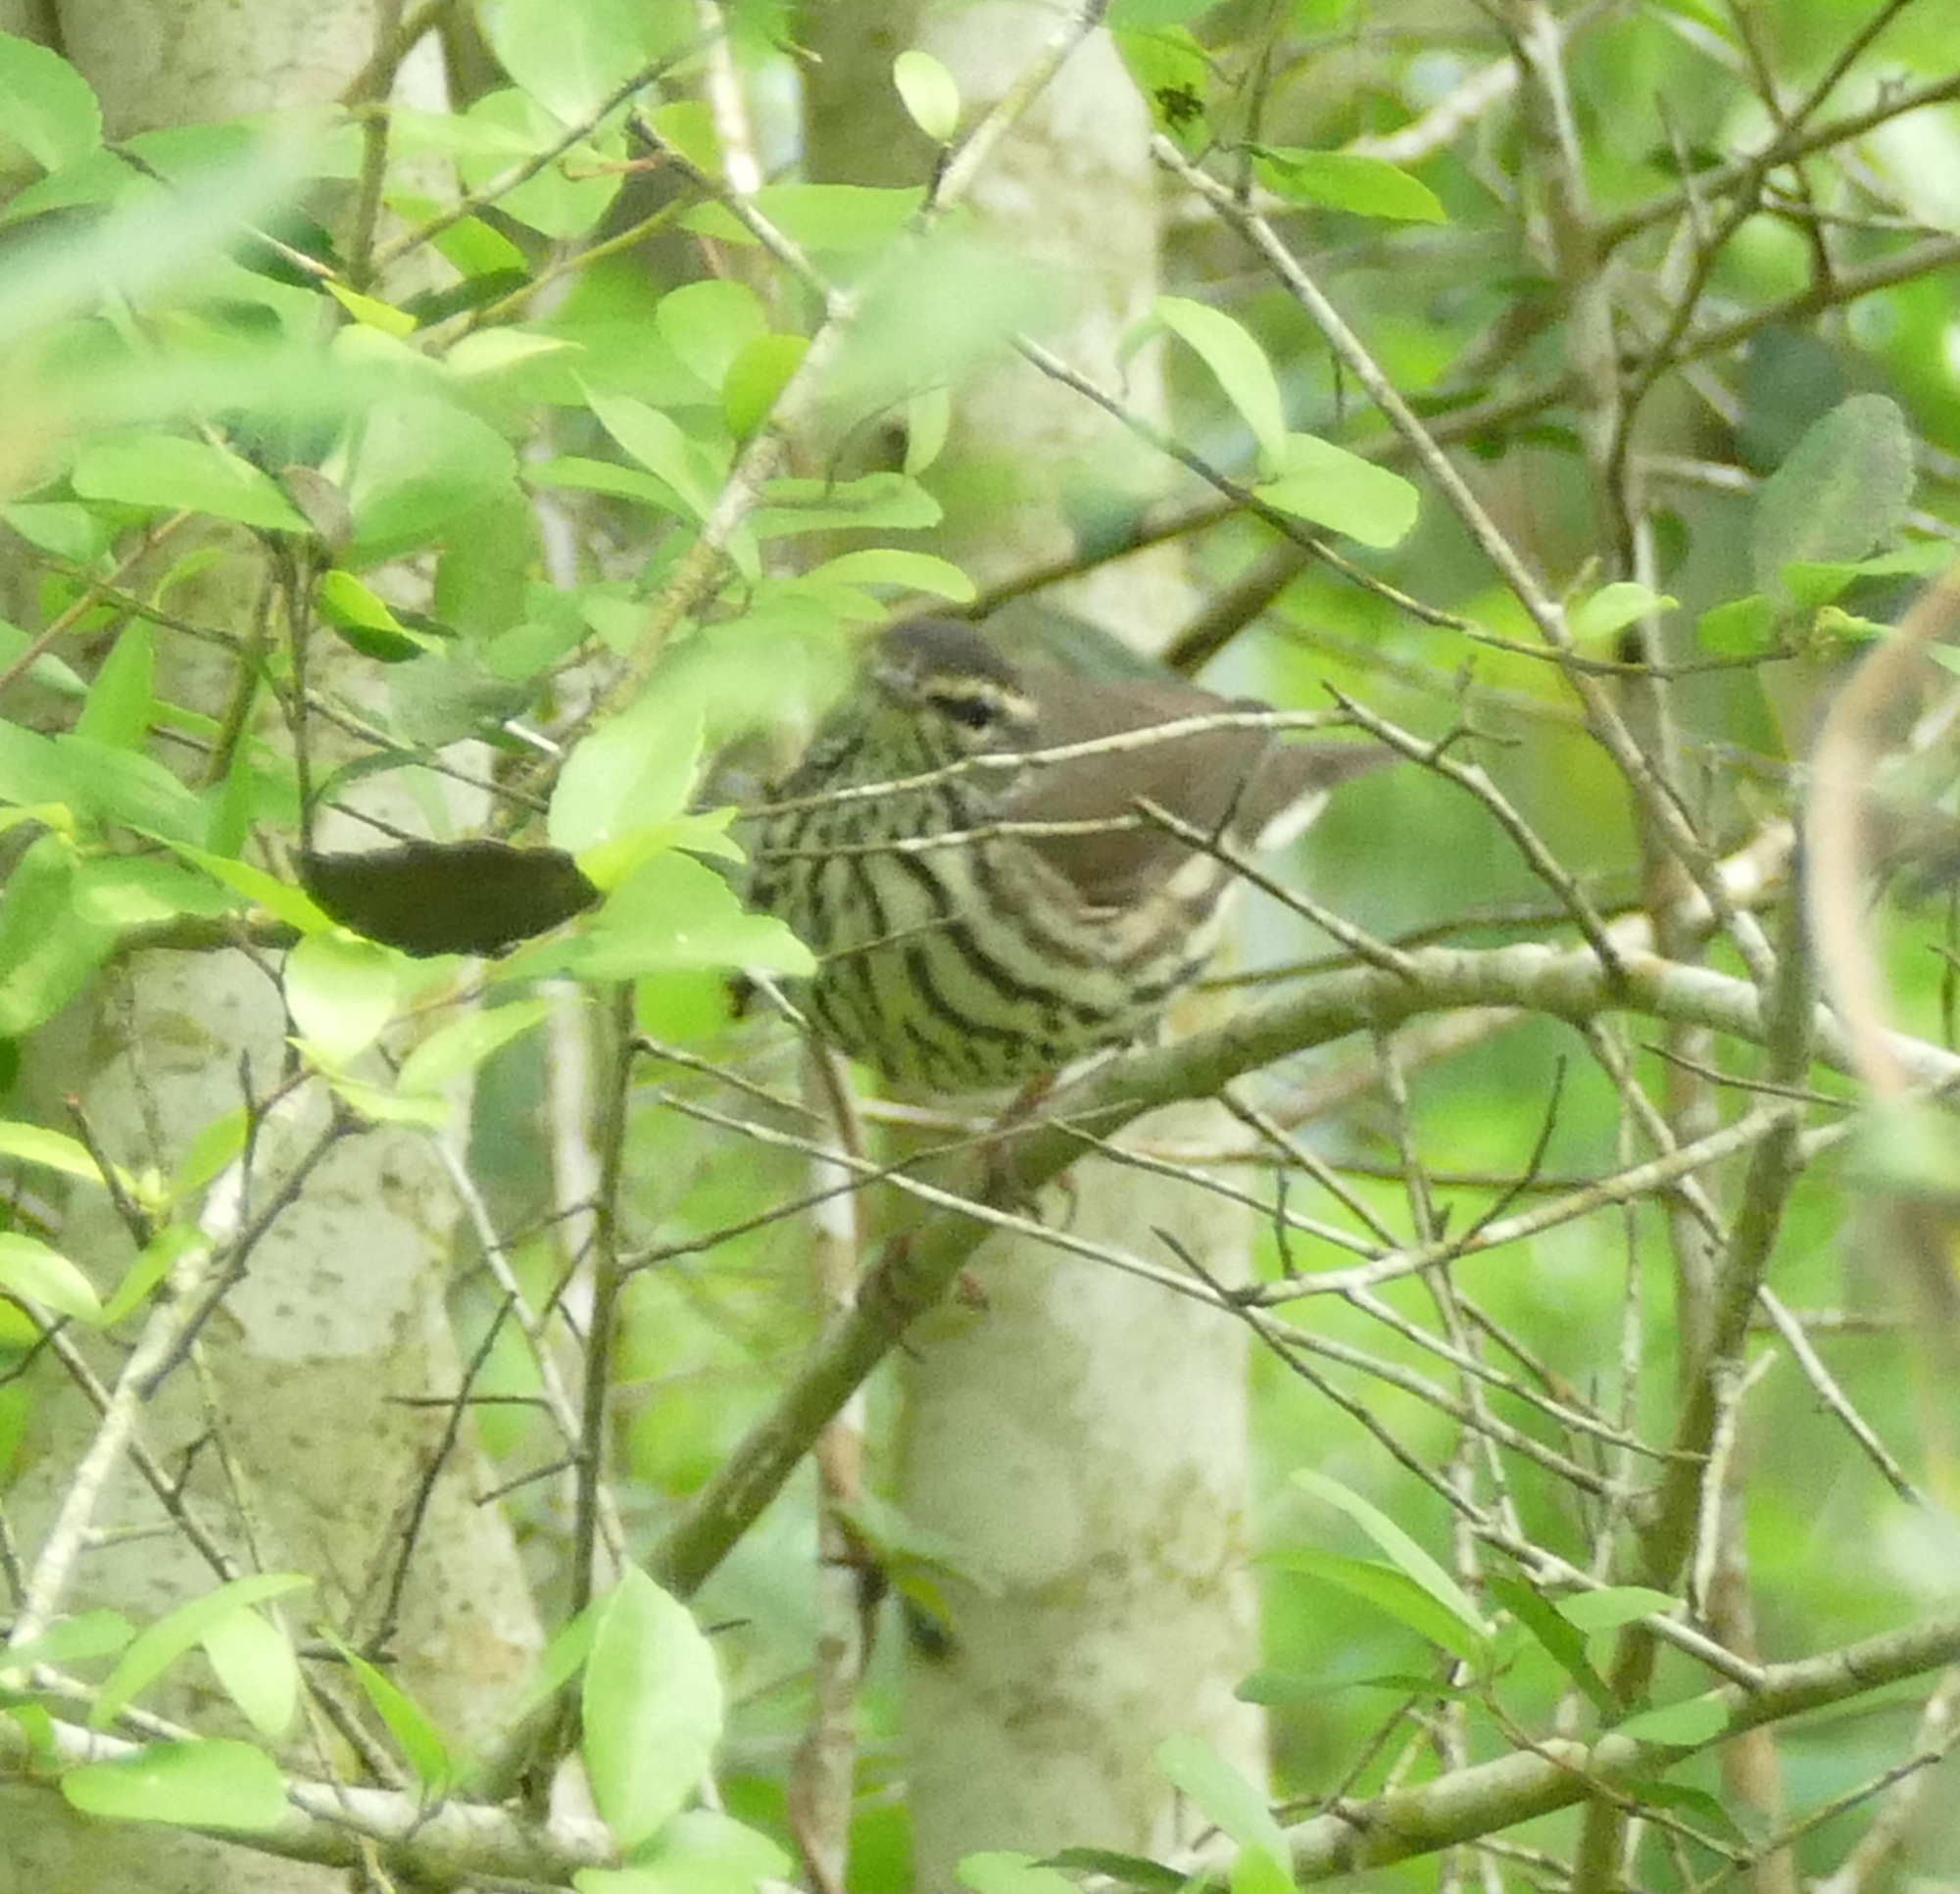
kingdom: Animalia
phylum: Chordata
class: Aves
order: Passeriformes
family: Parulidae
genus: Parkesia
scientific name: Parkesia noveboracensis
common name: Northern waterthrush
